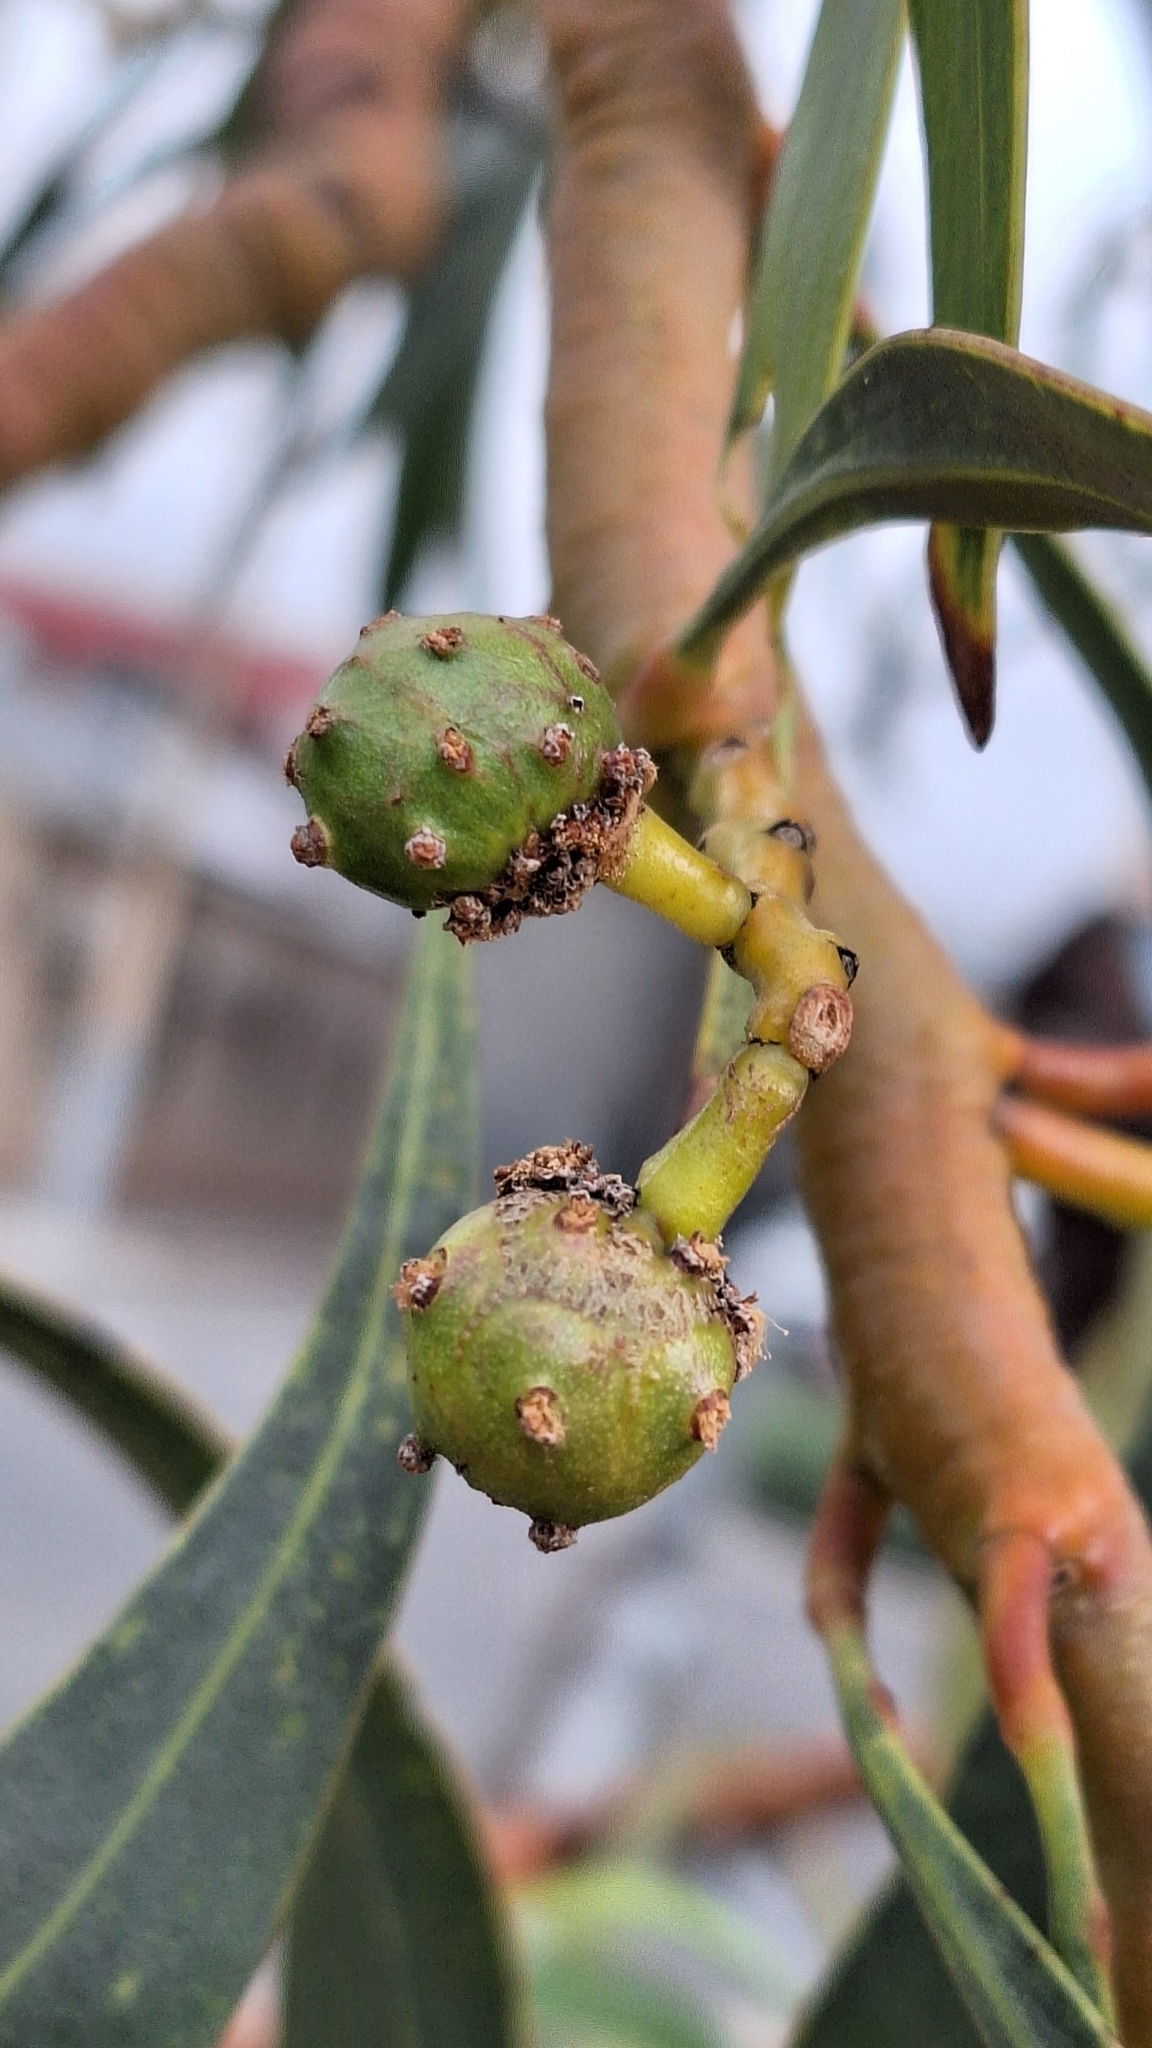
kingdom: Animalia
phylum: Arthropoda
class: Insecta
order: Hymenoptera
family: Pteromalidae
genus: Trichilogaster
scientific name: Trichilogaster signiventris
